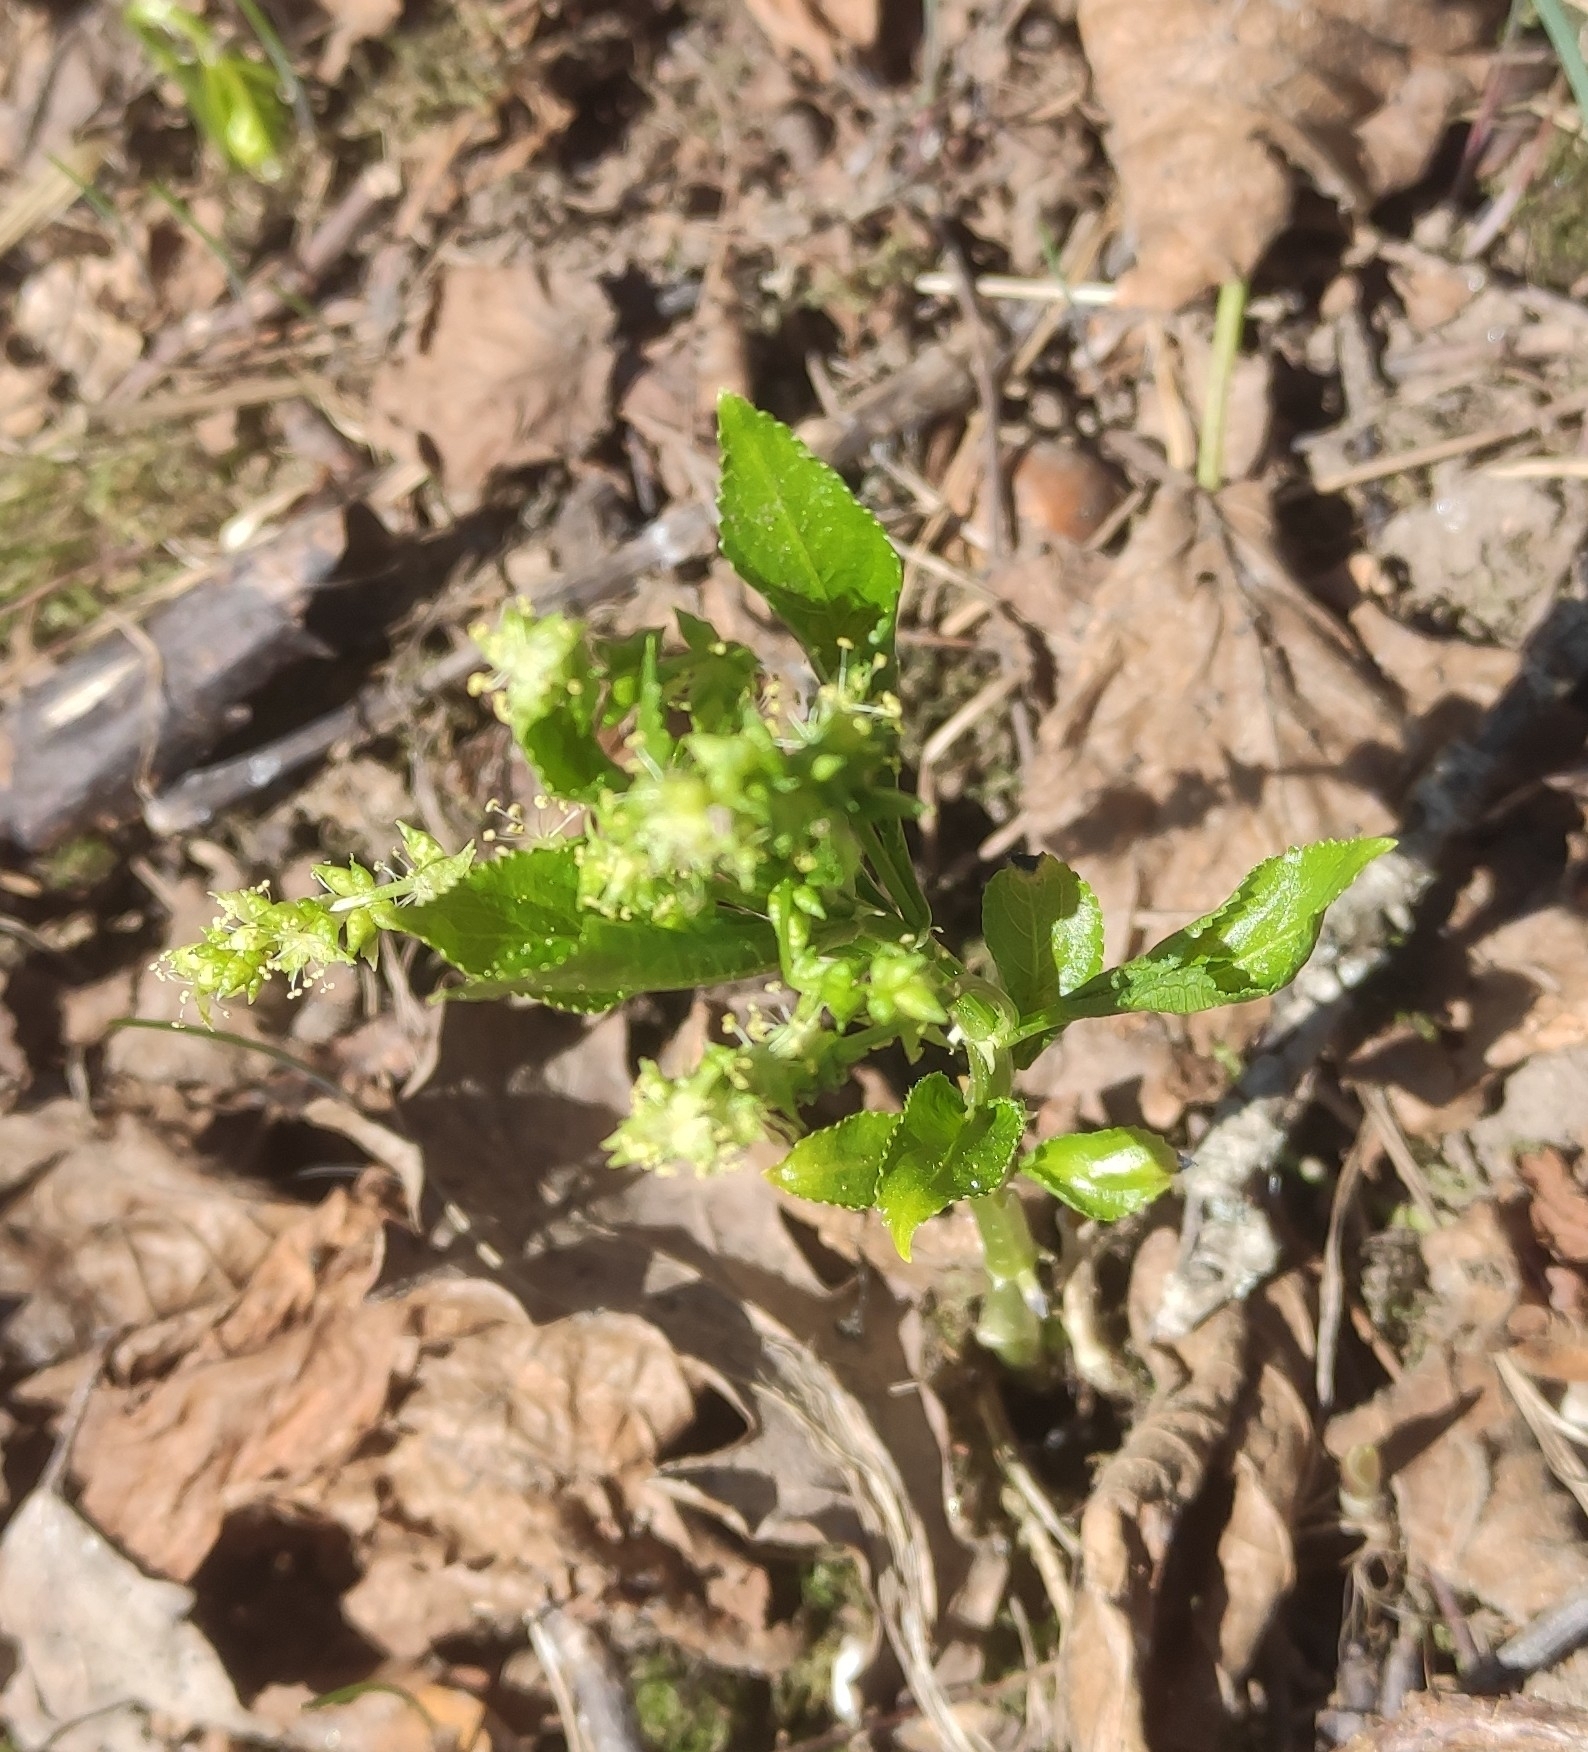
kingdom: Plantae
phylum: Tracheophyta
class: Magnoliopsida
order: Malpighiales
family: Euphorbiaceae
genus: Mercurialis
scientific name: Mercurialis perennis
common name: Dog mercury
